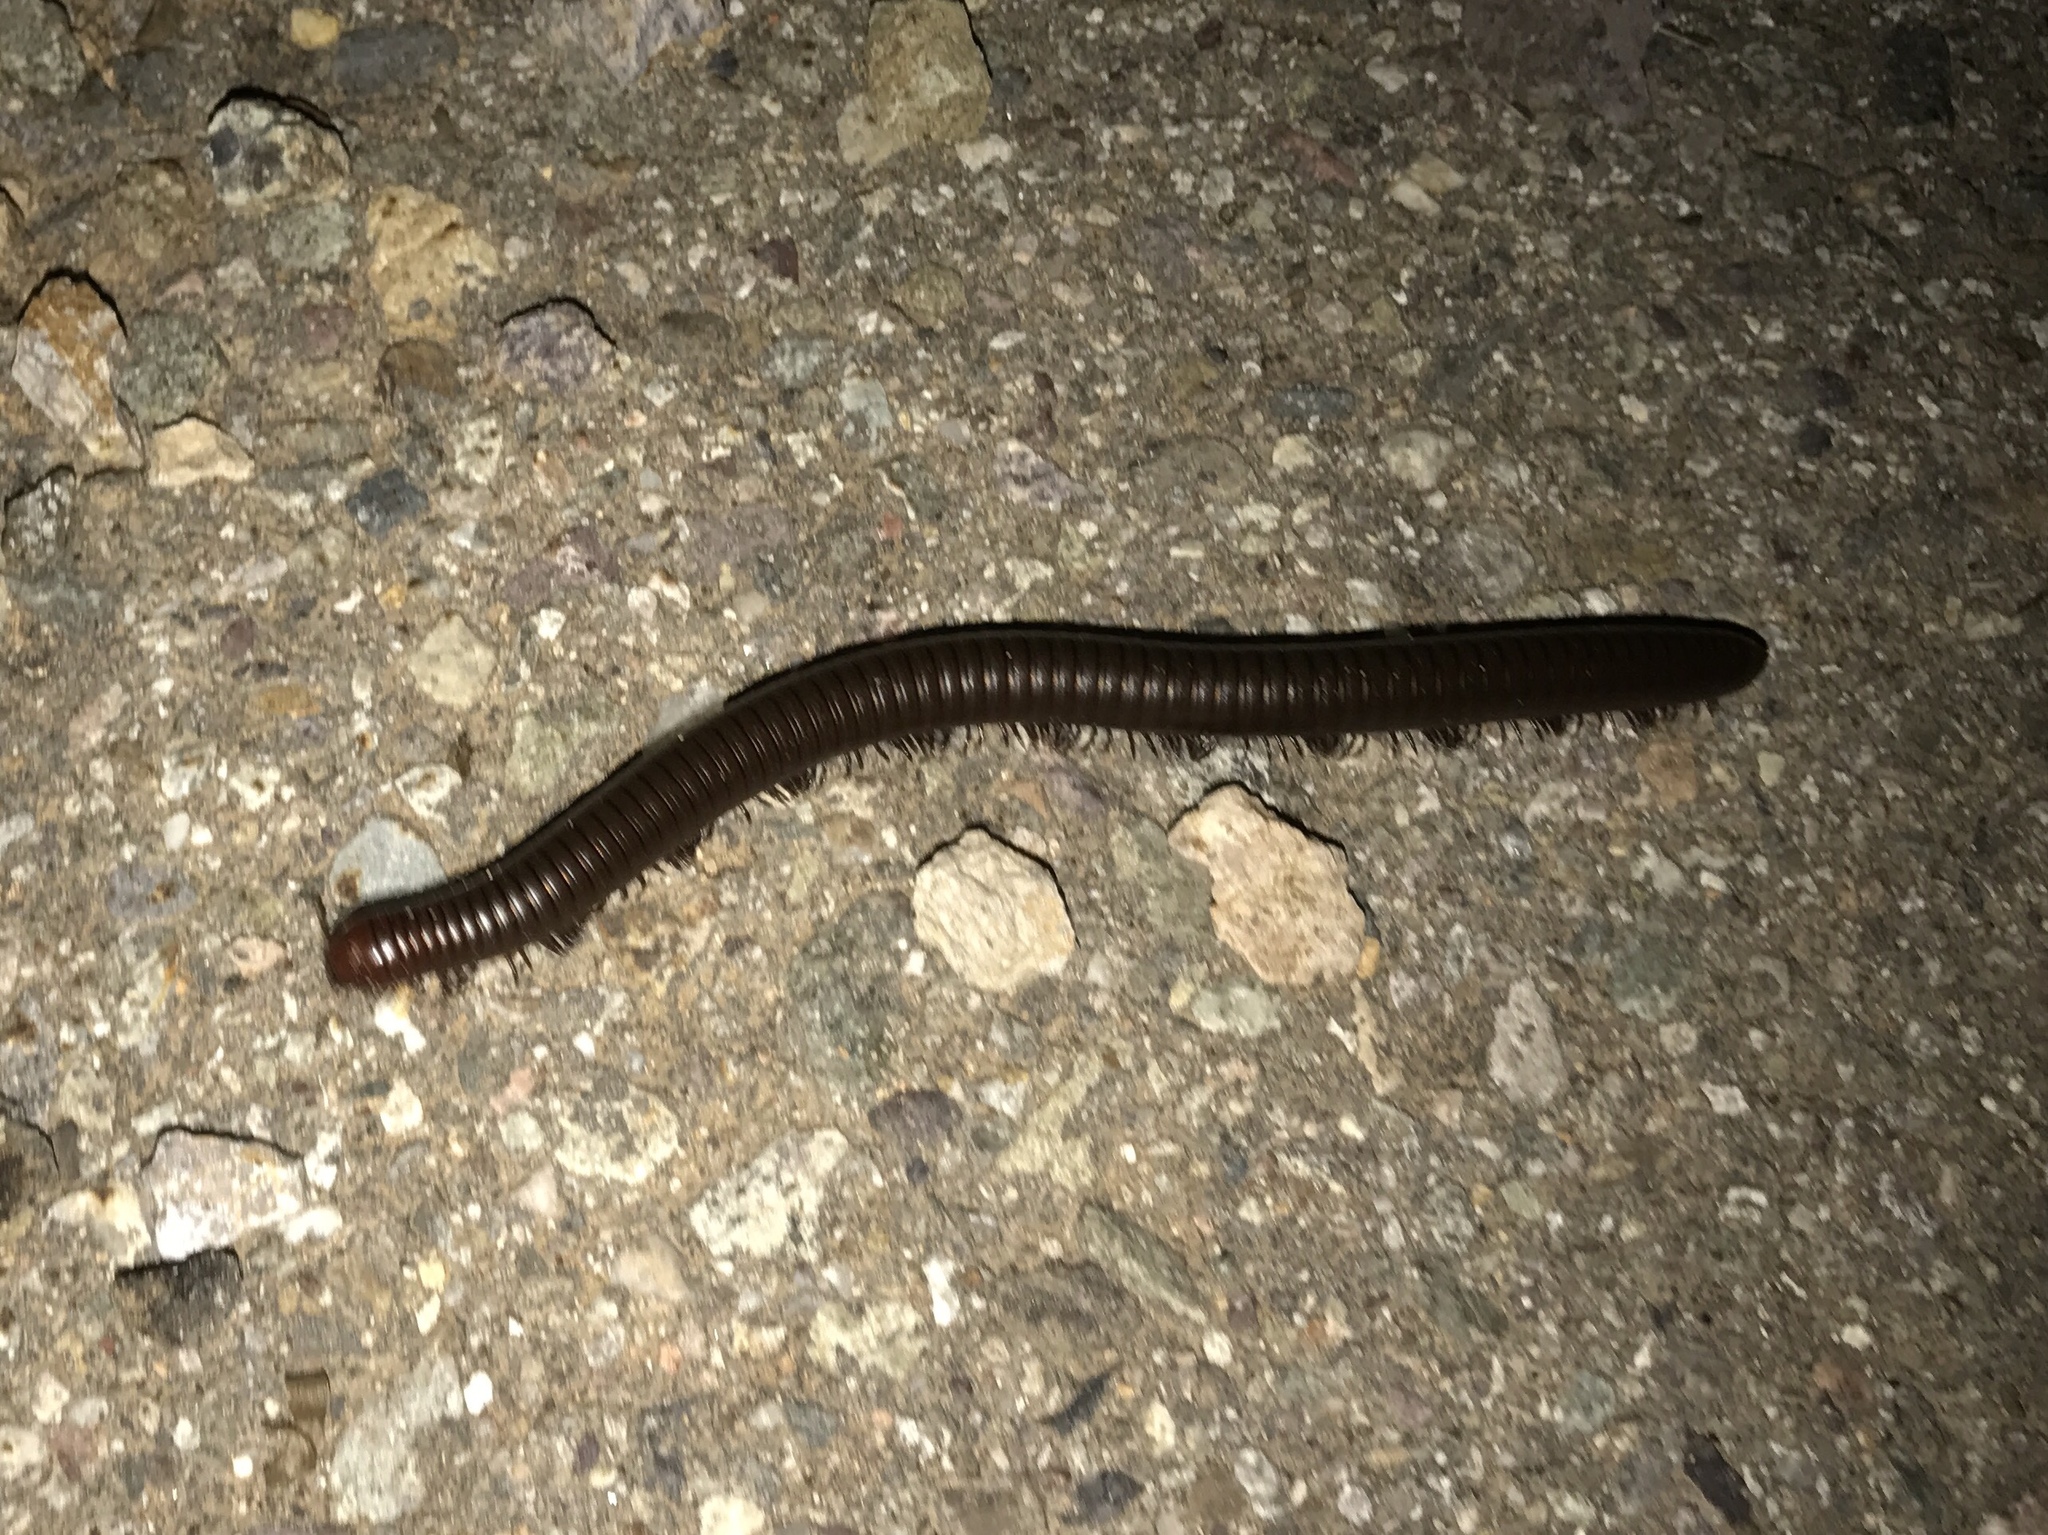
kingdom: Animalia
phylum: Arthropoda
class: Diplopoda
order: Spirostreptida
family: Spirostreptidae
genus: Orthoporus
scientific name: Orthoporus ornatus
